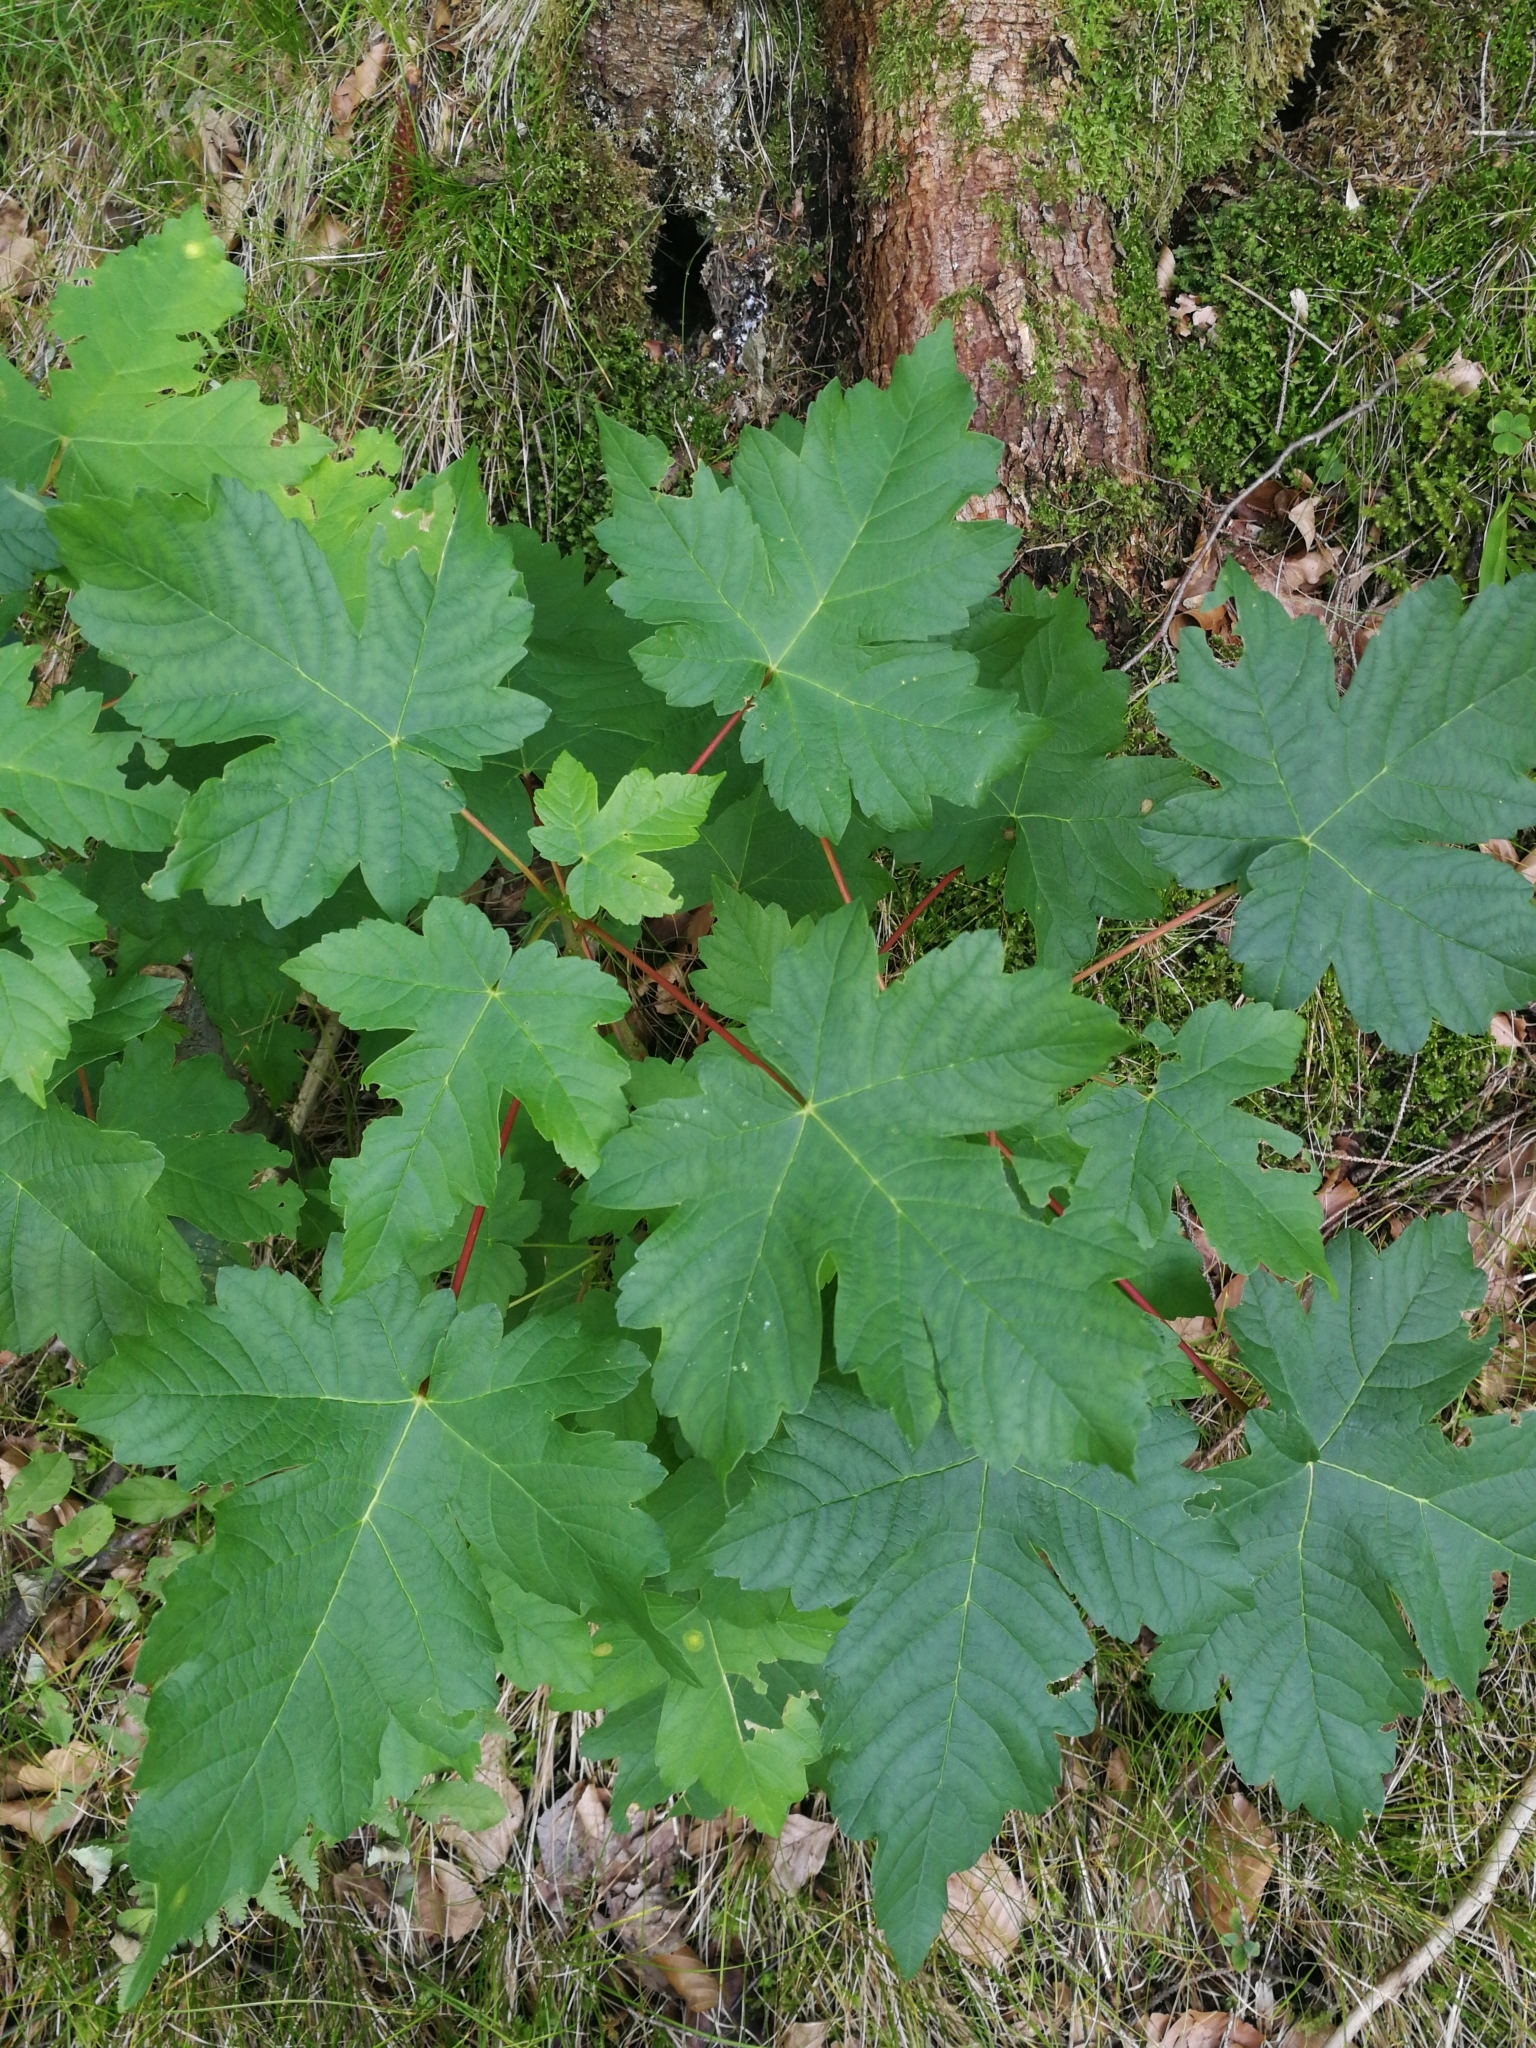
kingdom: Plantae
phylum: Tracheophyta
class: Magnoliopsida
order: Sapindales
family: Sapindaceae
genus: Acer
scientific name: Acer pseudoplatanus
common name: Sycamore
